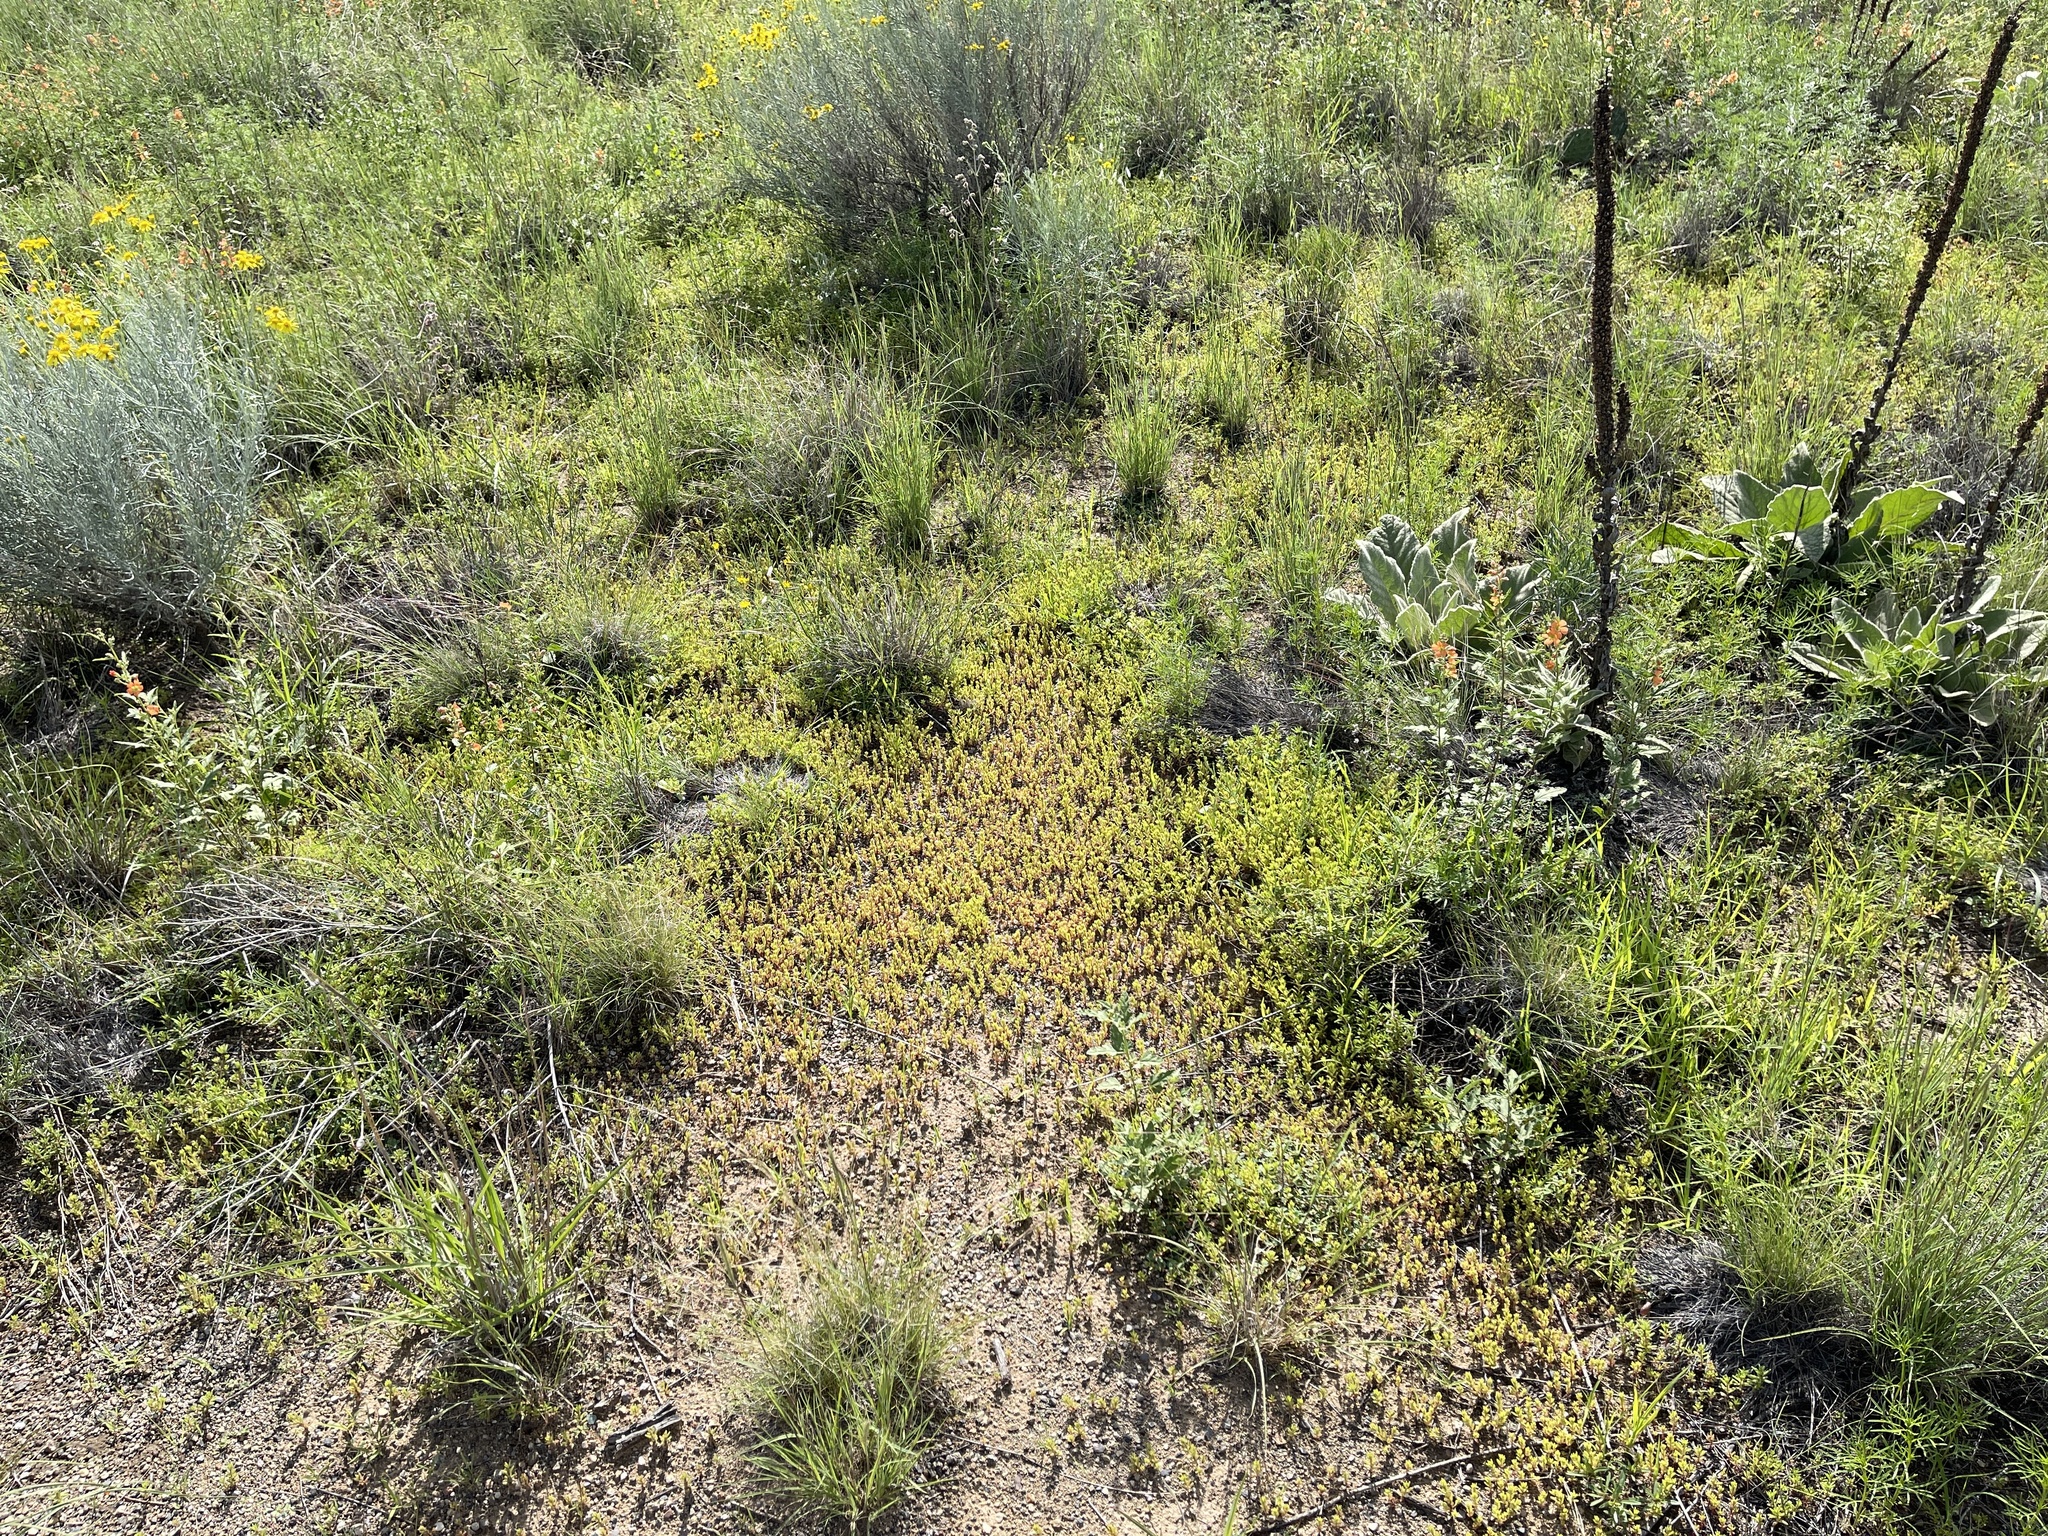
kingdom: Plantae
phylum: Tracheophyta
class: Magnoliopsida
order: Caryophyllales
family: Amaranthaceae
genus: Suaeda
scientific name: Suaeda nigra
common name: Bush seepweed
